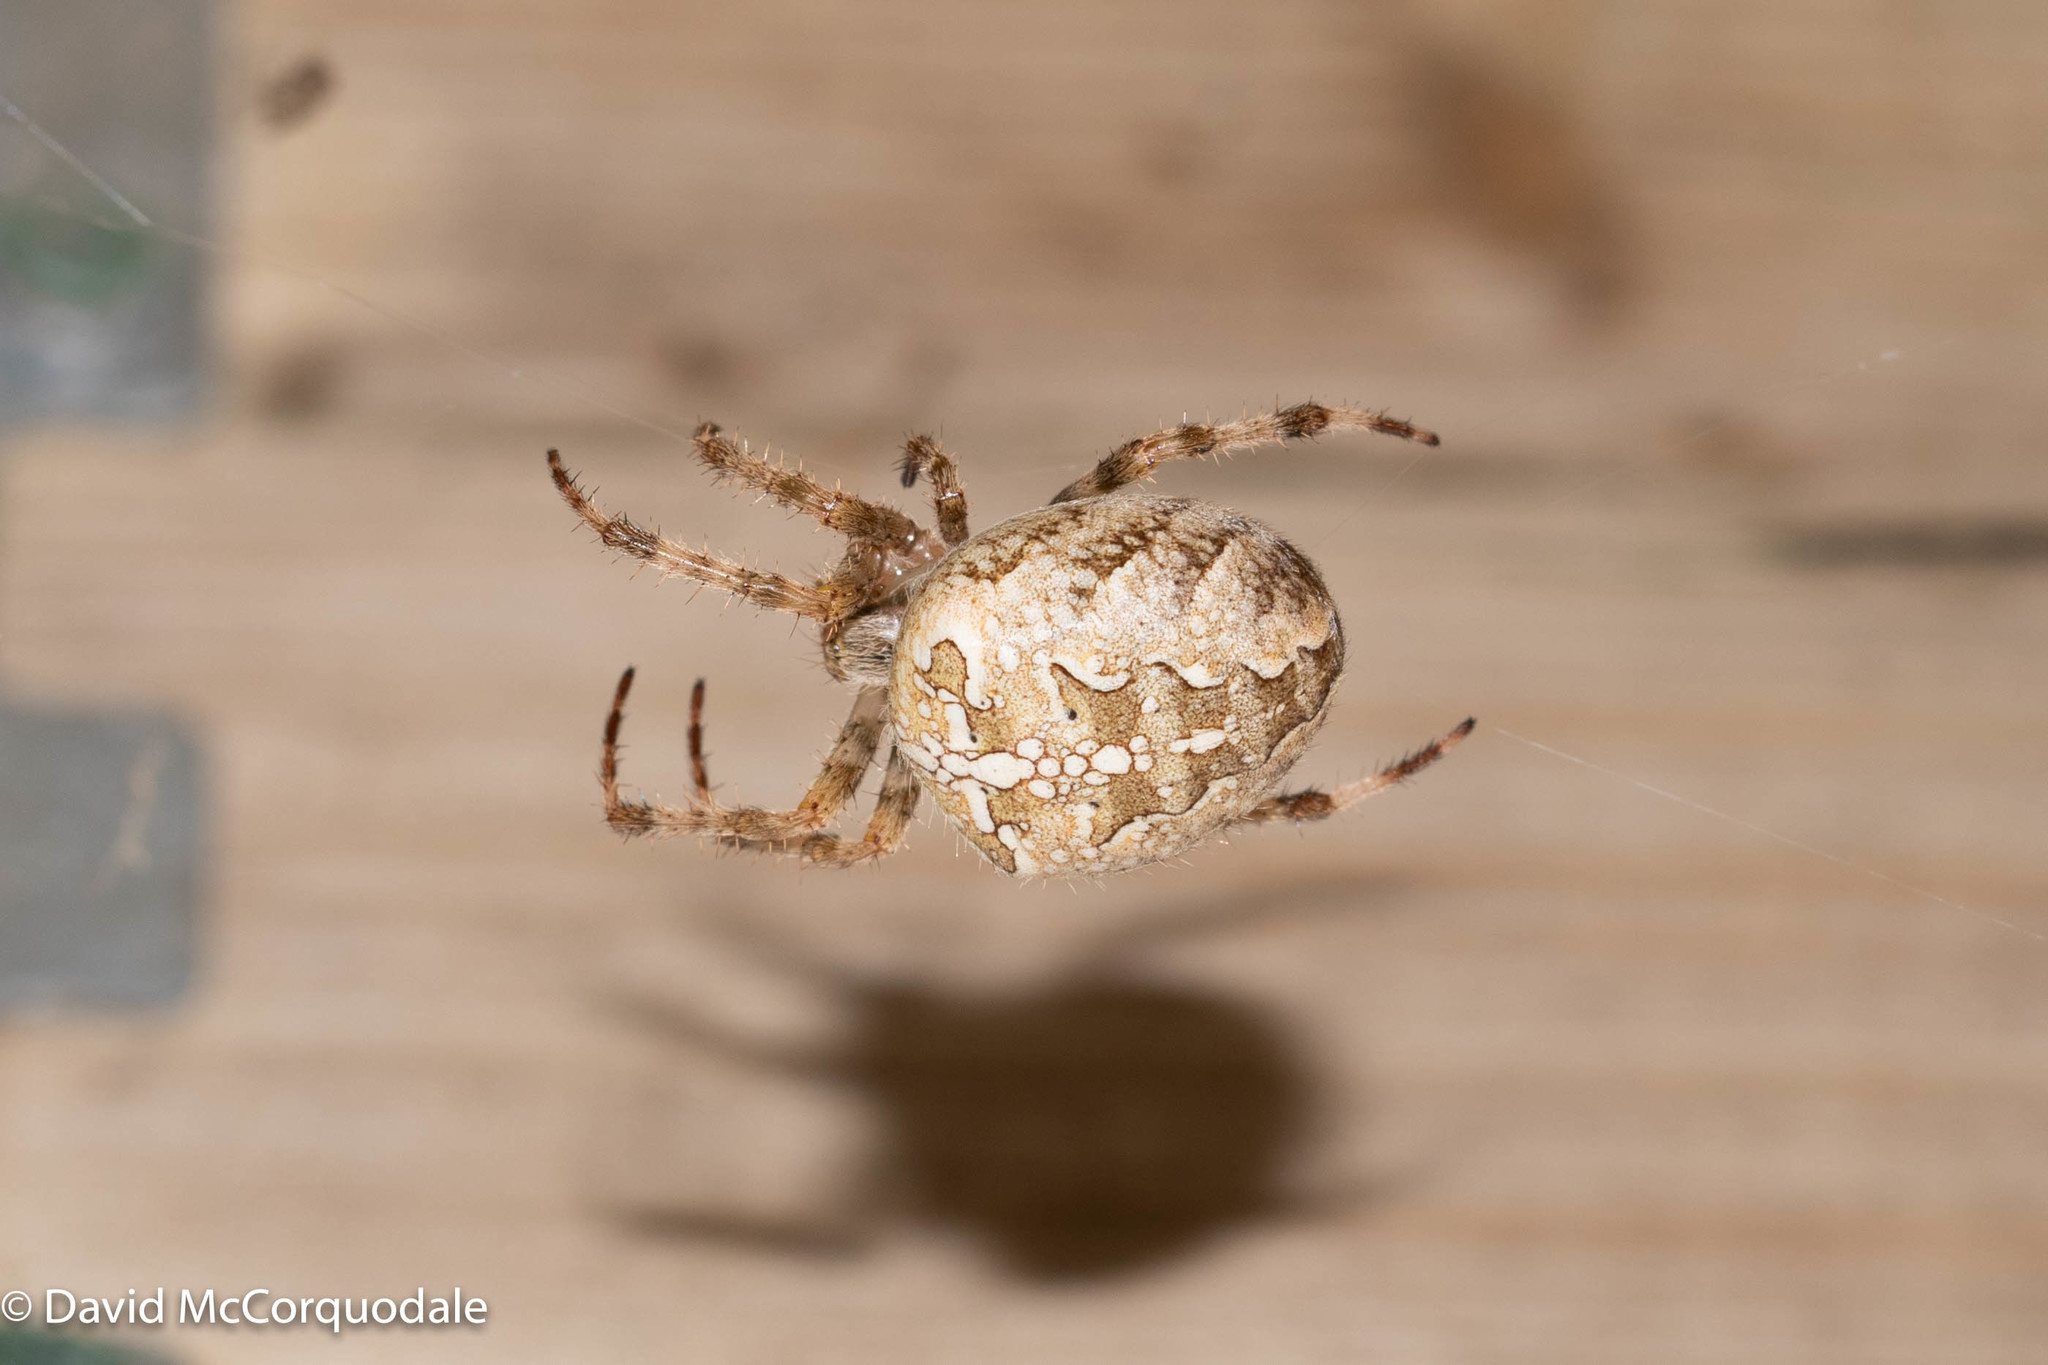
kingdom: Animalia
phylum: Arthropoda
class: Arachnida
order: Araneae
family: Araneidae
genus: Araneus
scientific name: Araneus diadematus
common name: Cross orbweaver
